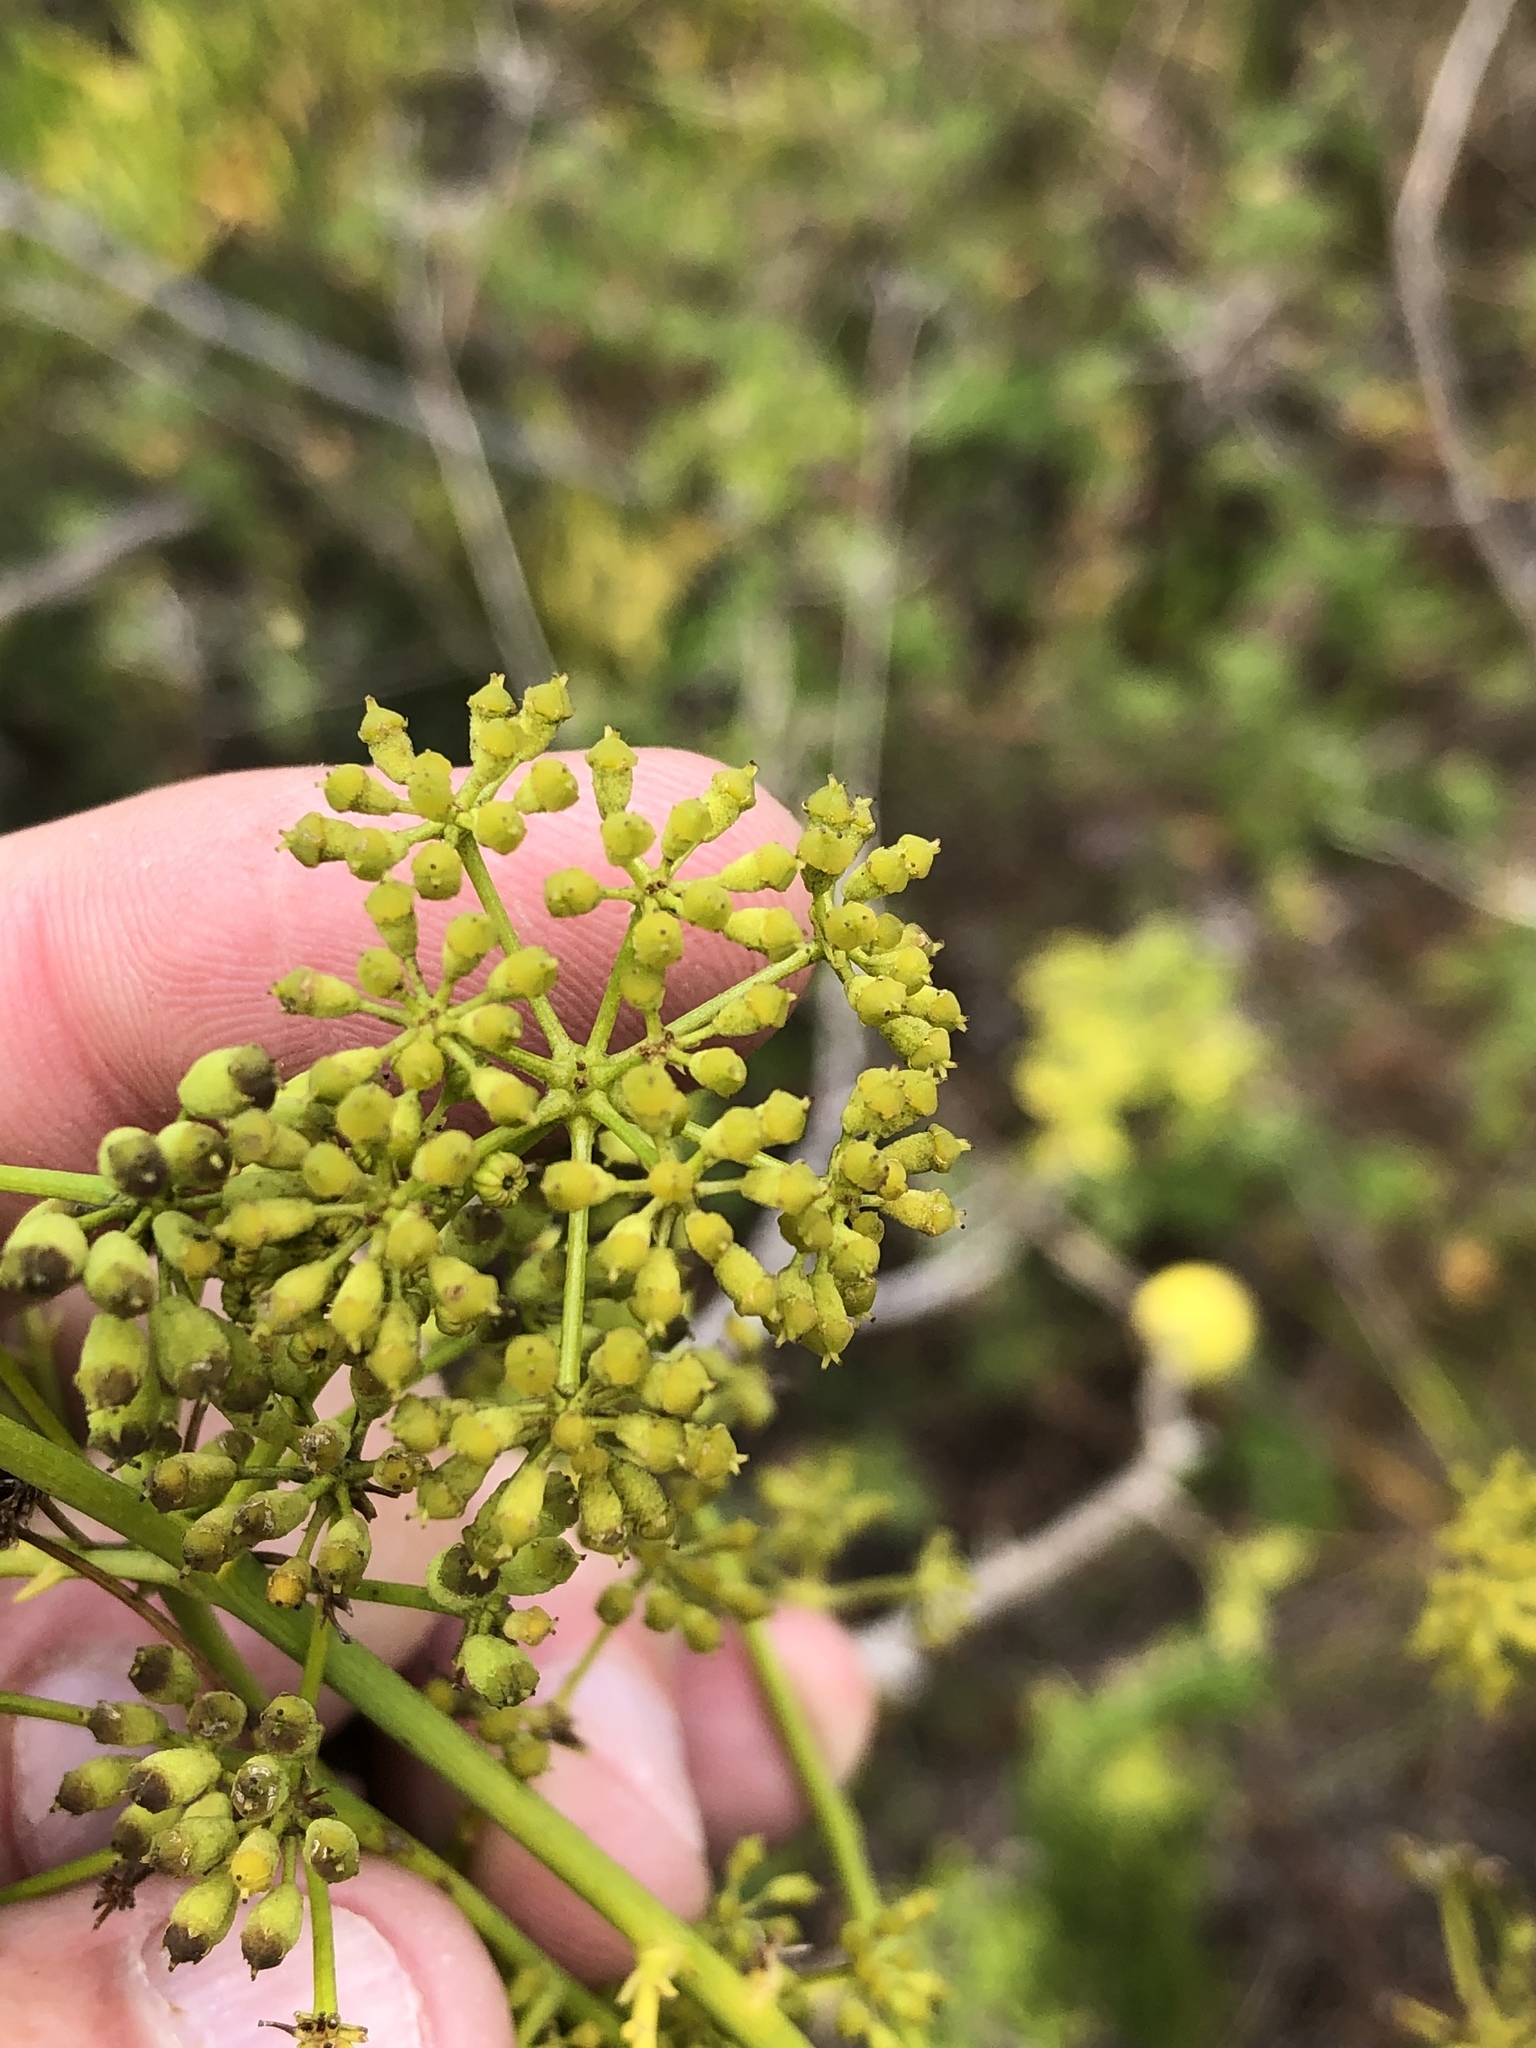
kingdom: Plantae
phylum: Tracheophyta
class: Magnoliopsida
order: Apiales
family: Apiaceae
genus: Anginon
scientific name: Anginon difforme
